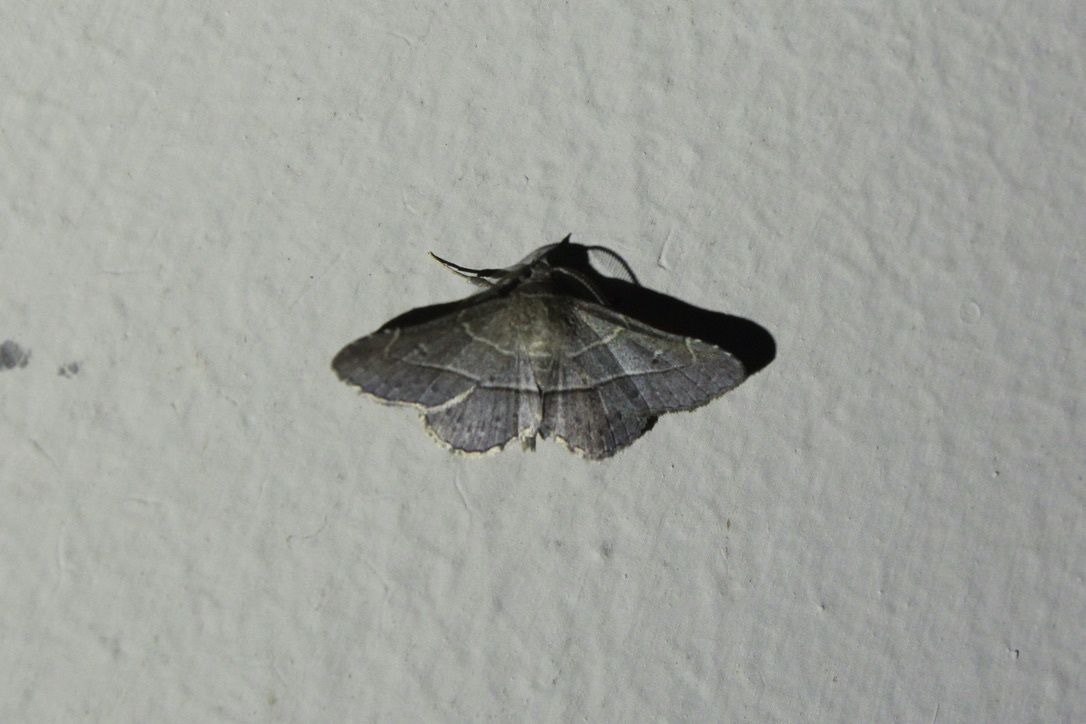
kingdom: Animalia
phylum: Arthropoda
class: Insecta
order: Lepidoptera
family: Erebidae
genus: Coenobela
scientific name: Coenobela paucula
